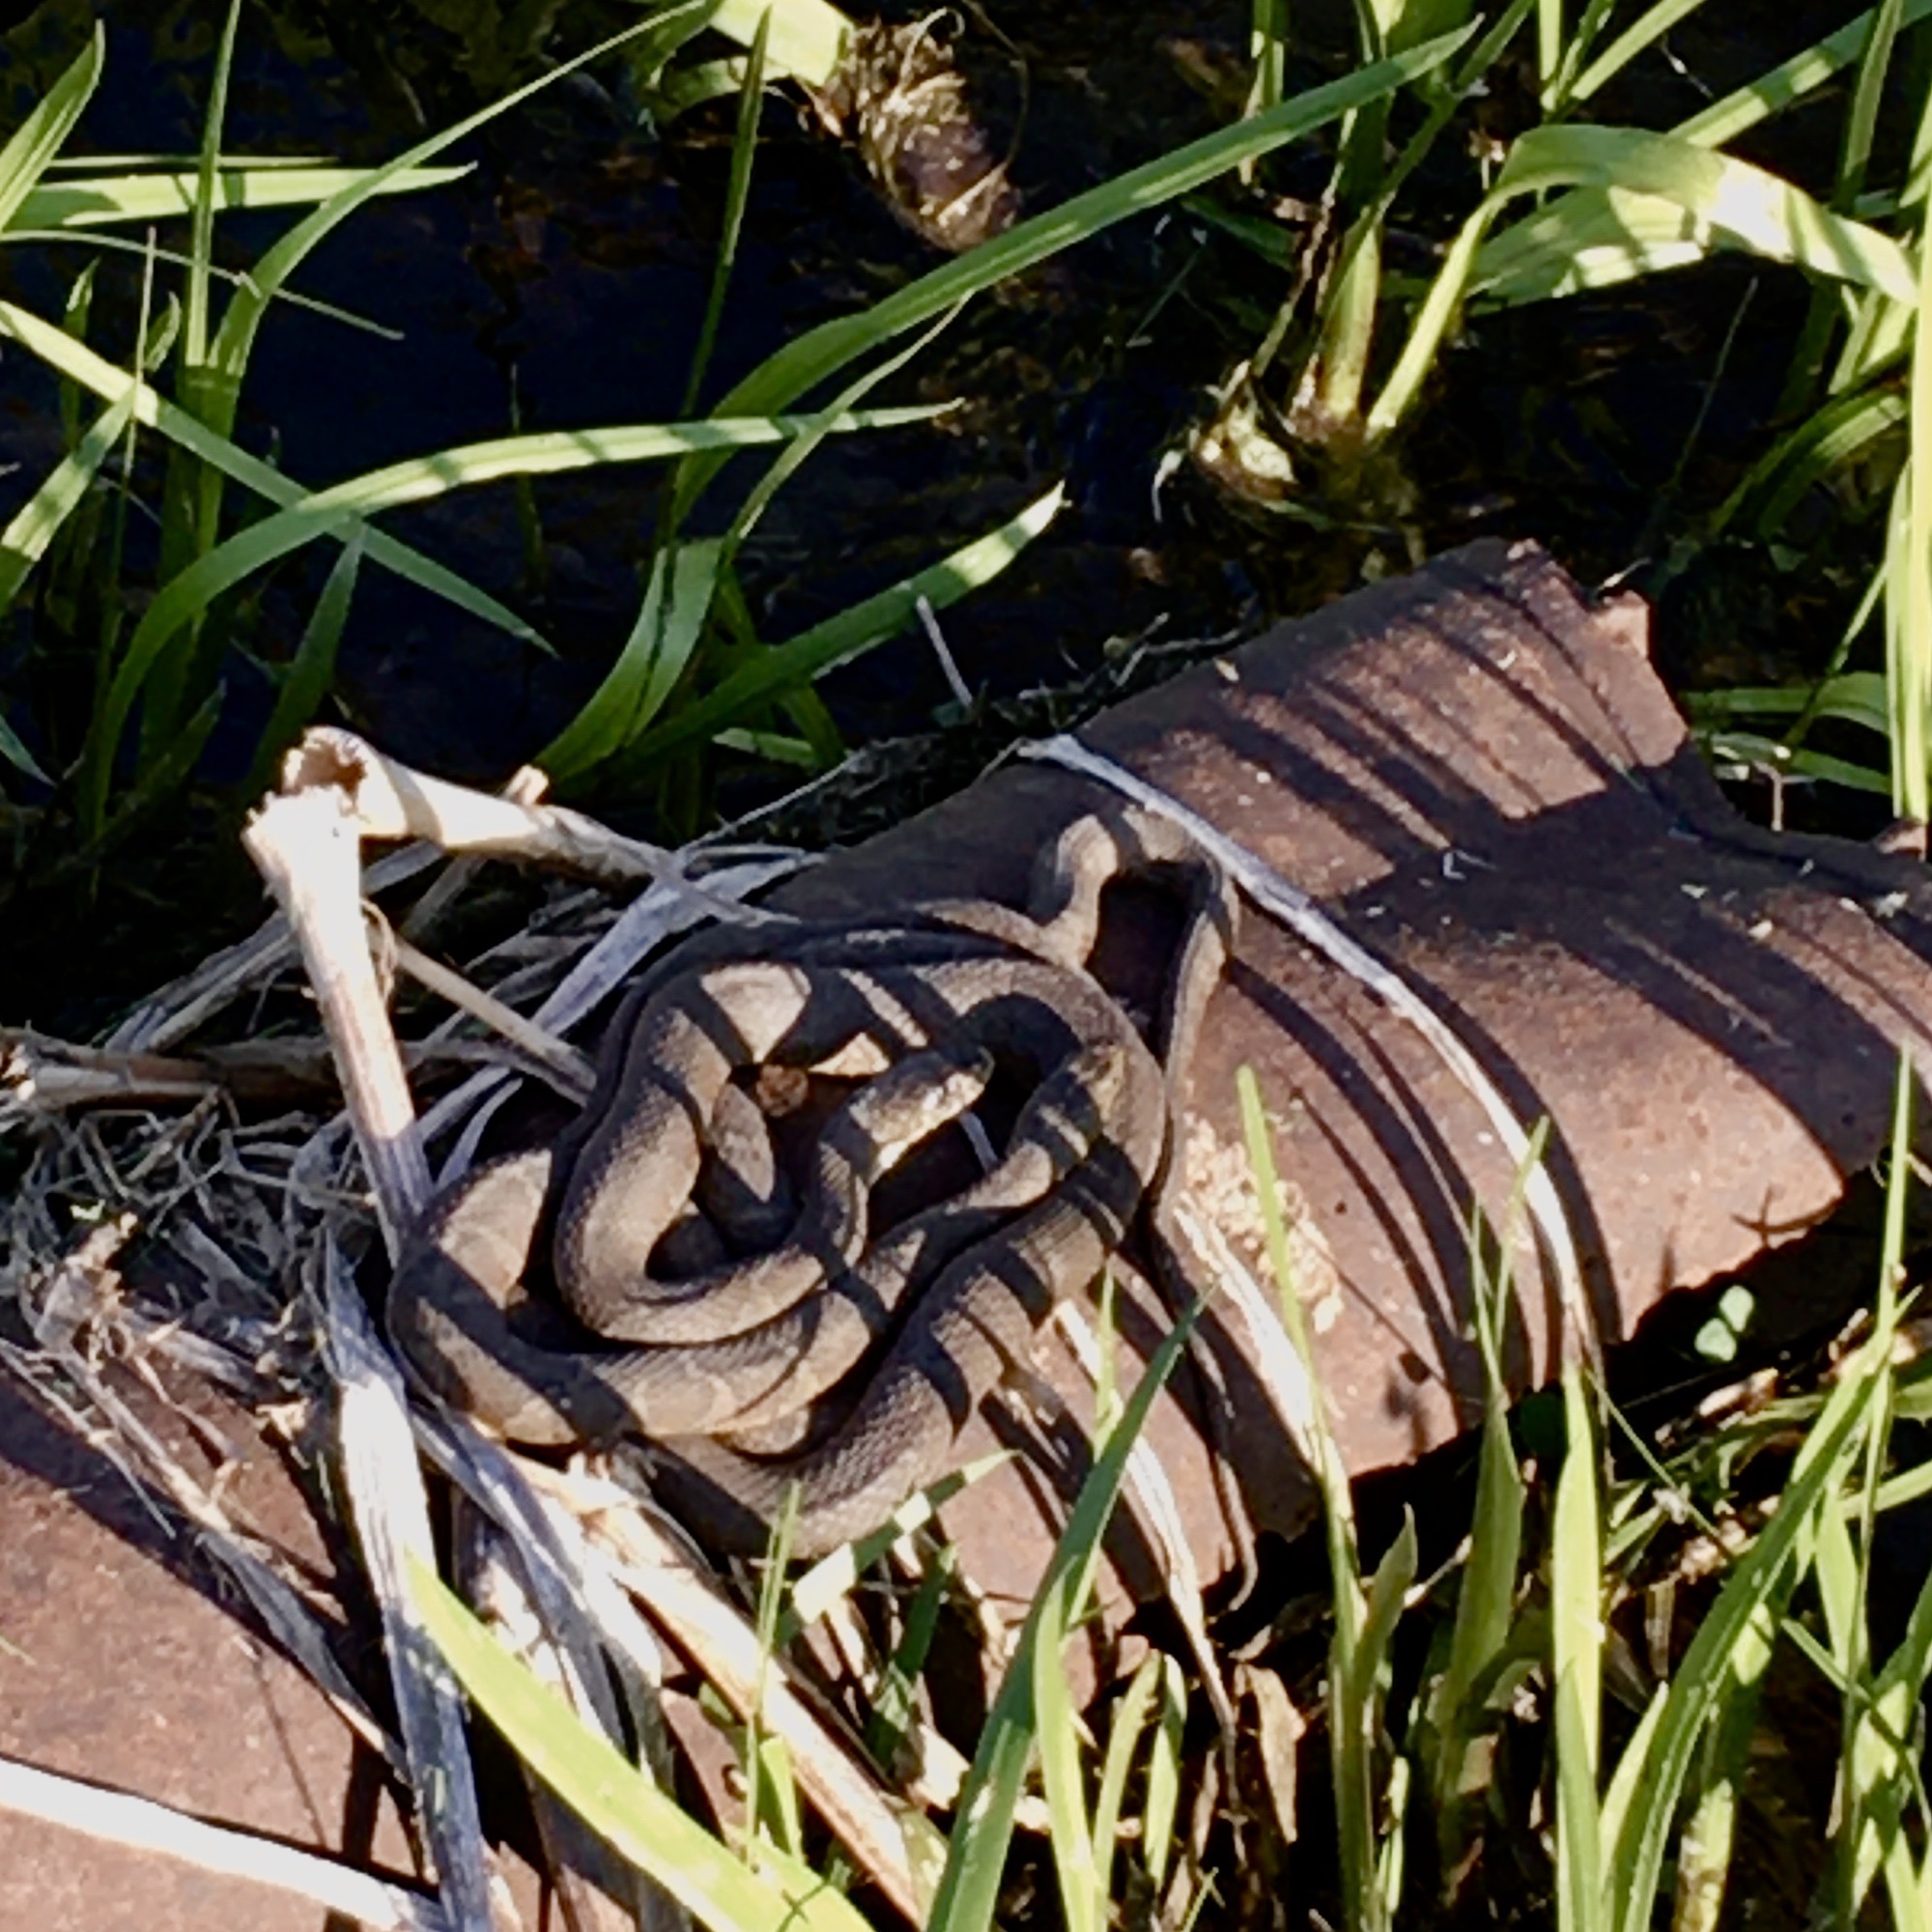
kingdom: Animalia
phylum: Chordata
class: Squamata
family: Colubridae
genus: Nerodia
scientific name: Nerodia sipedon
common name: Northern water snake
